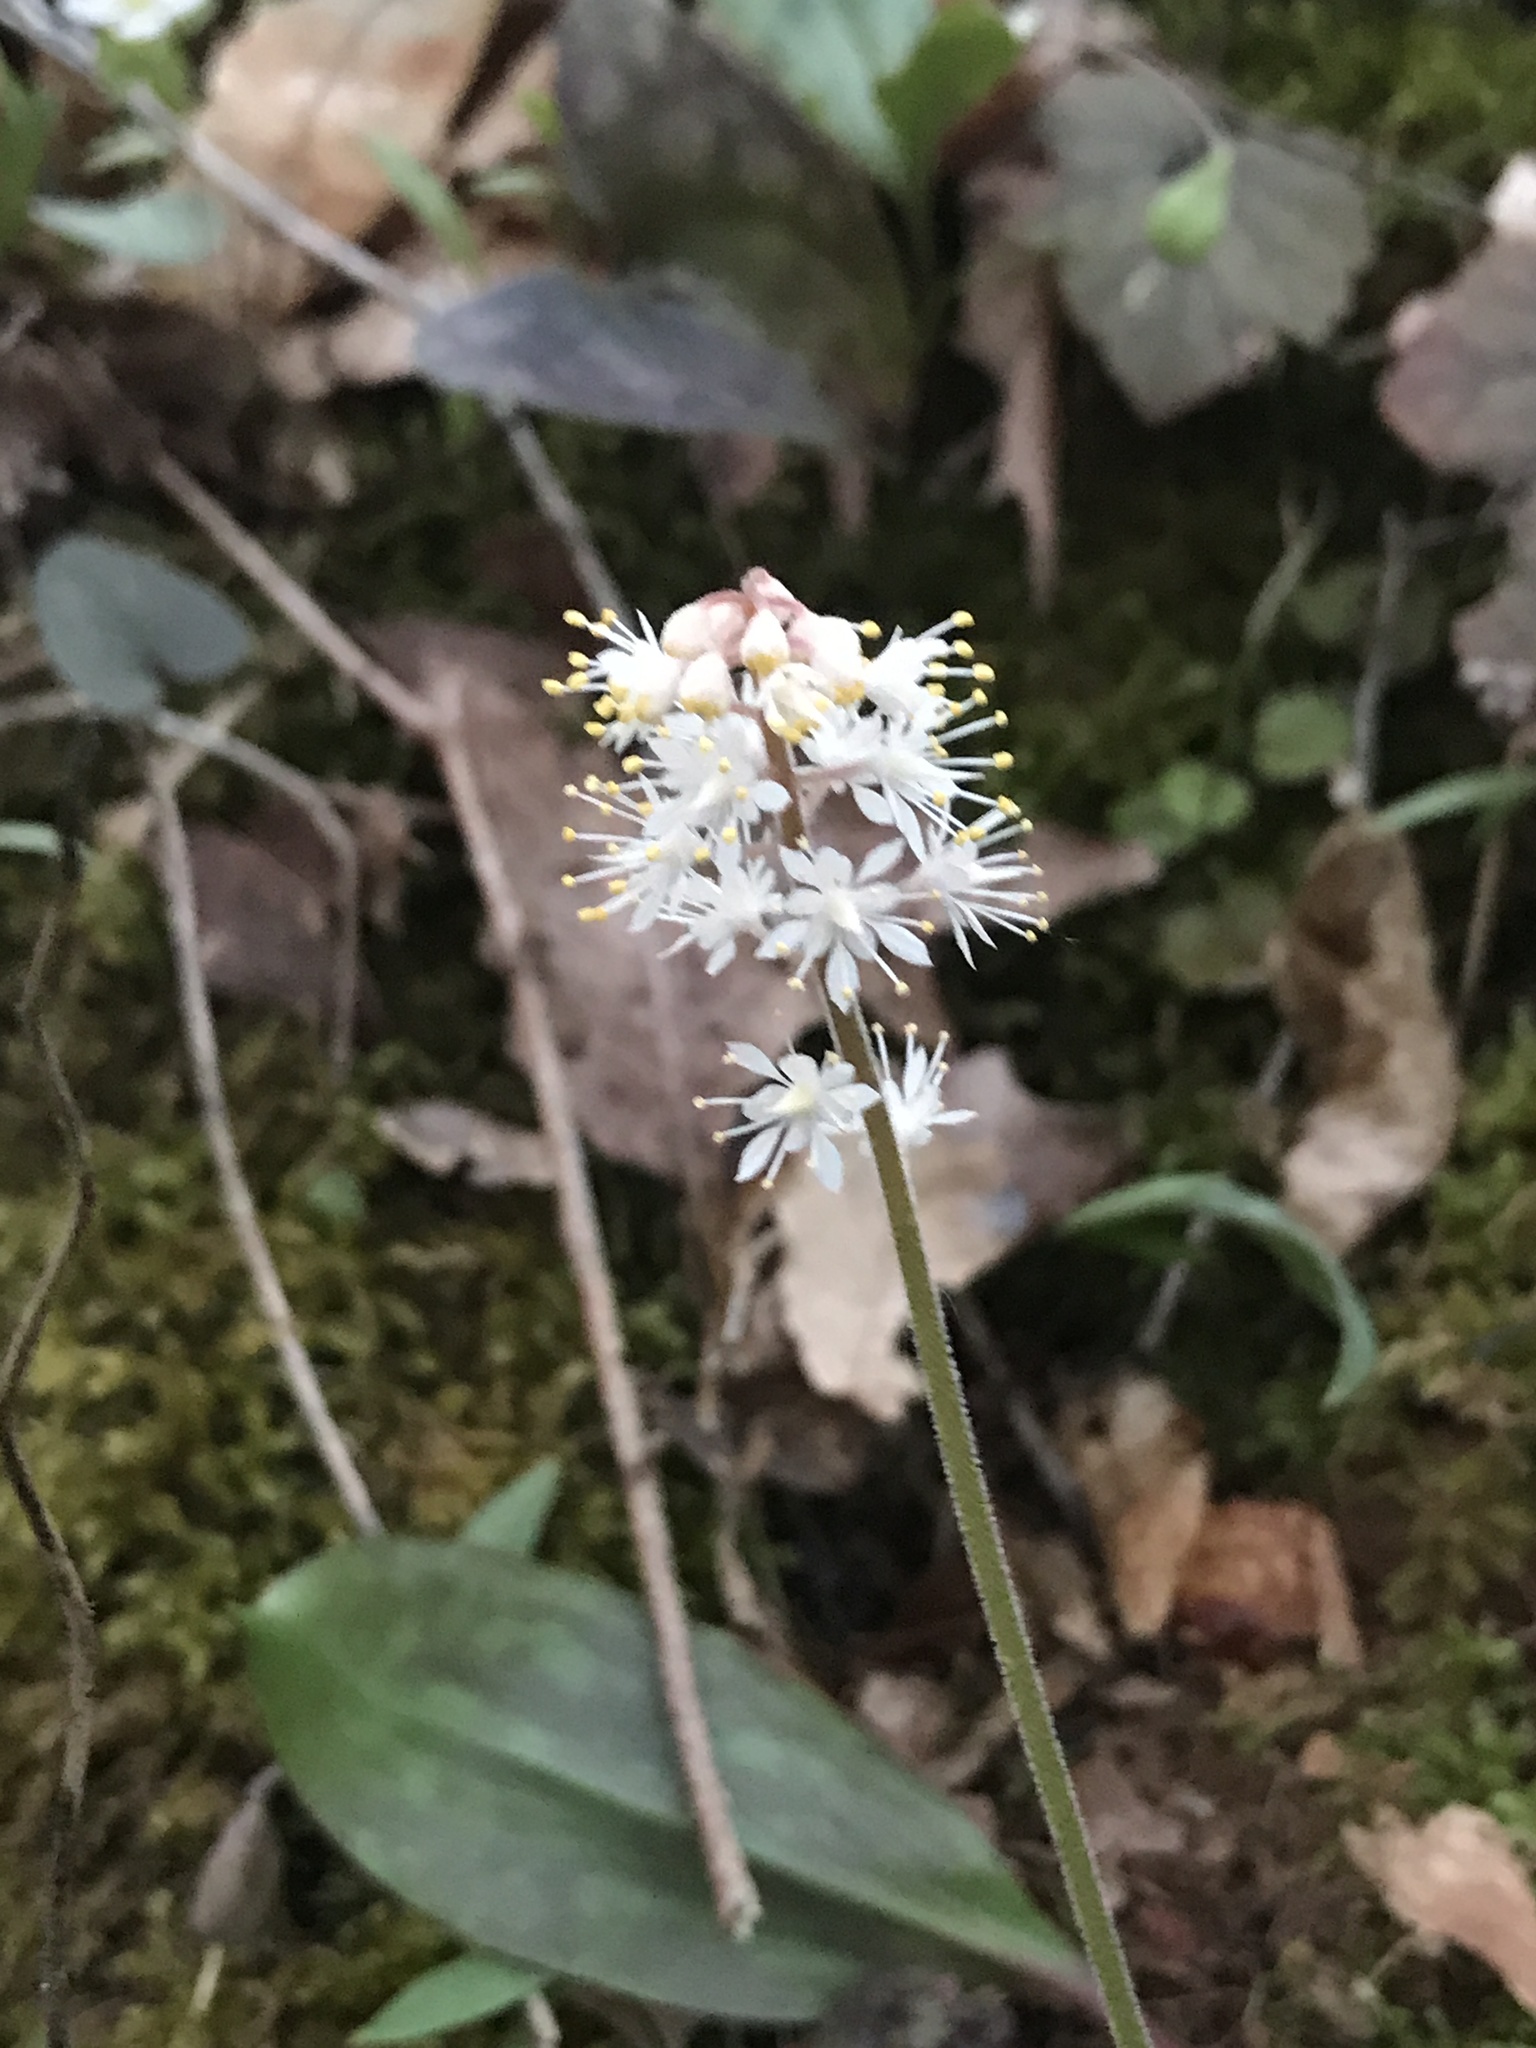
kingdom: Plantae
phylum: Tracheophyta
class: Magnoliopsida
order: Saxifragales
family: Saxifragaceae
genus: Tiarella
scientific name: Tiarella cordifolia
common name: Foamflower
